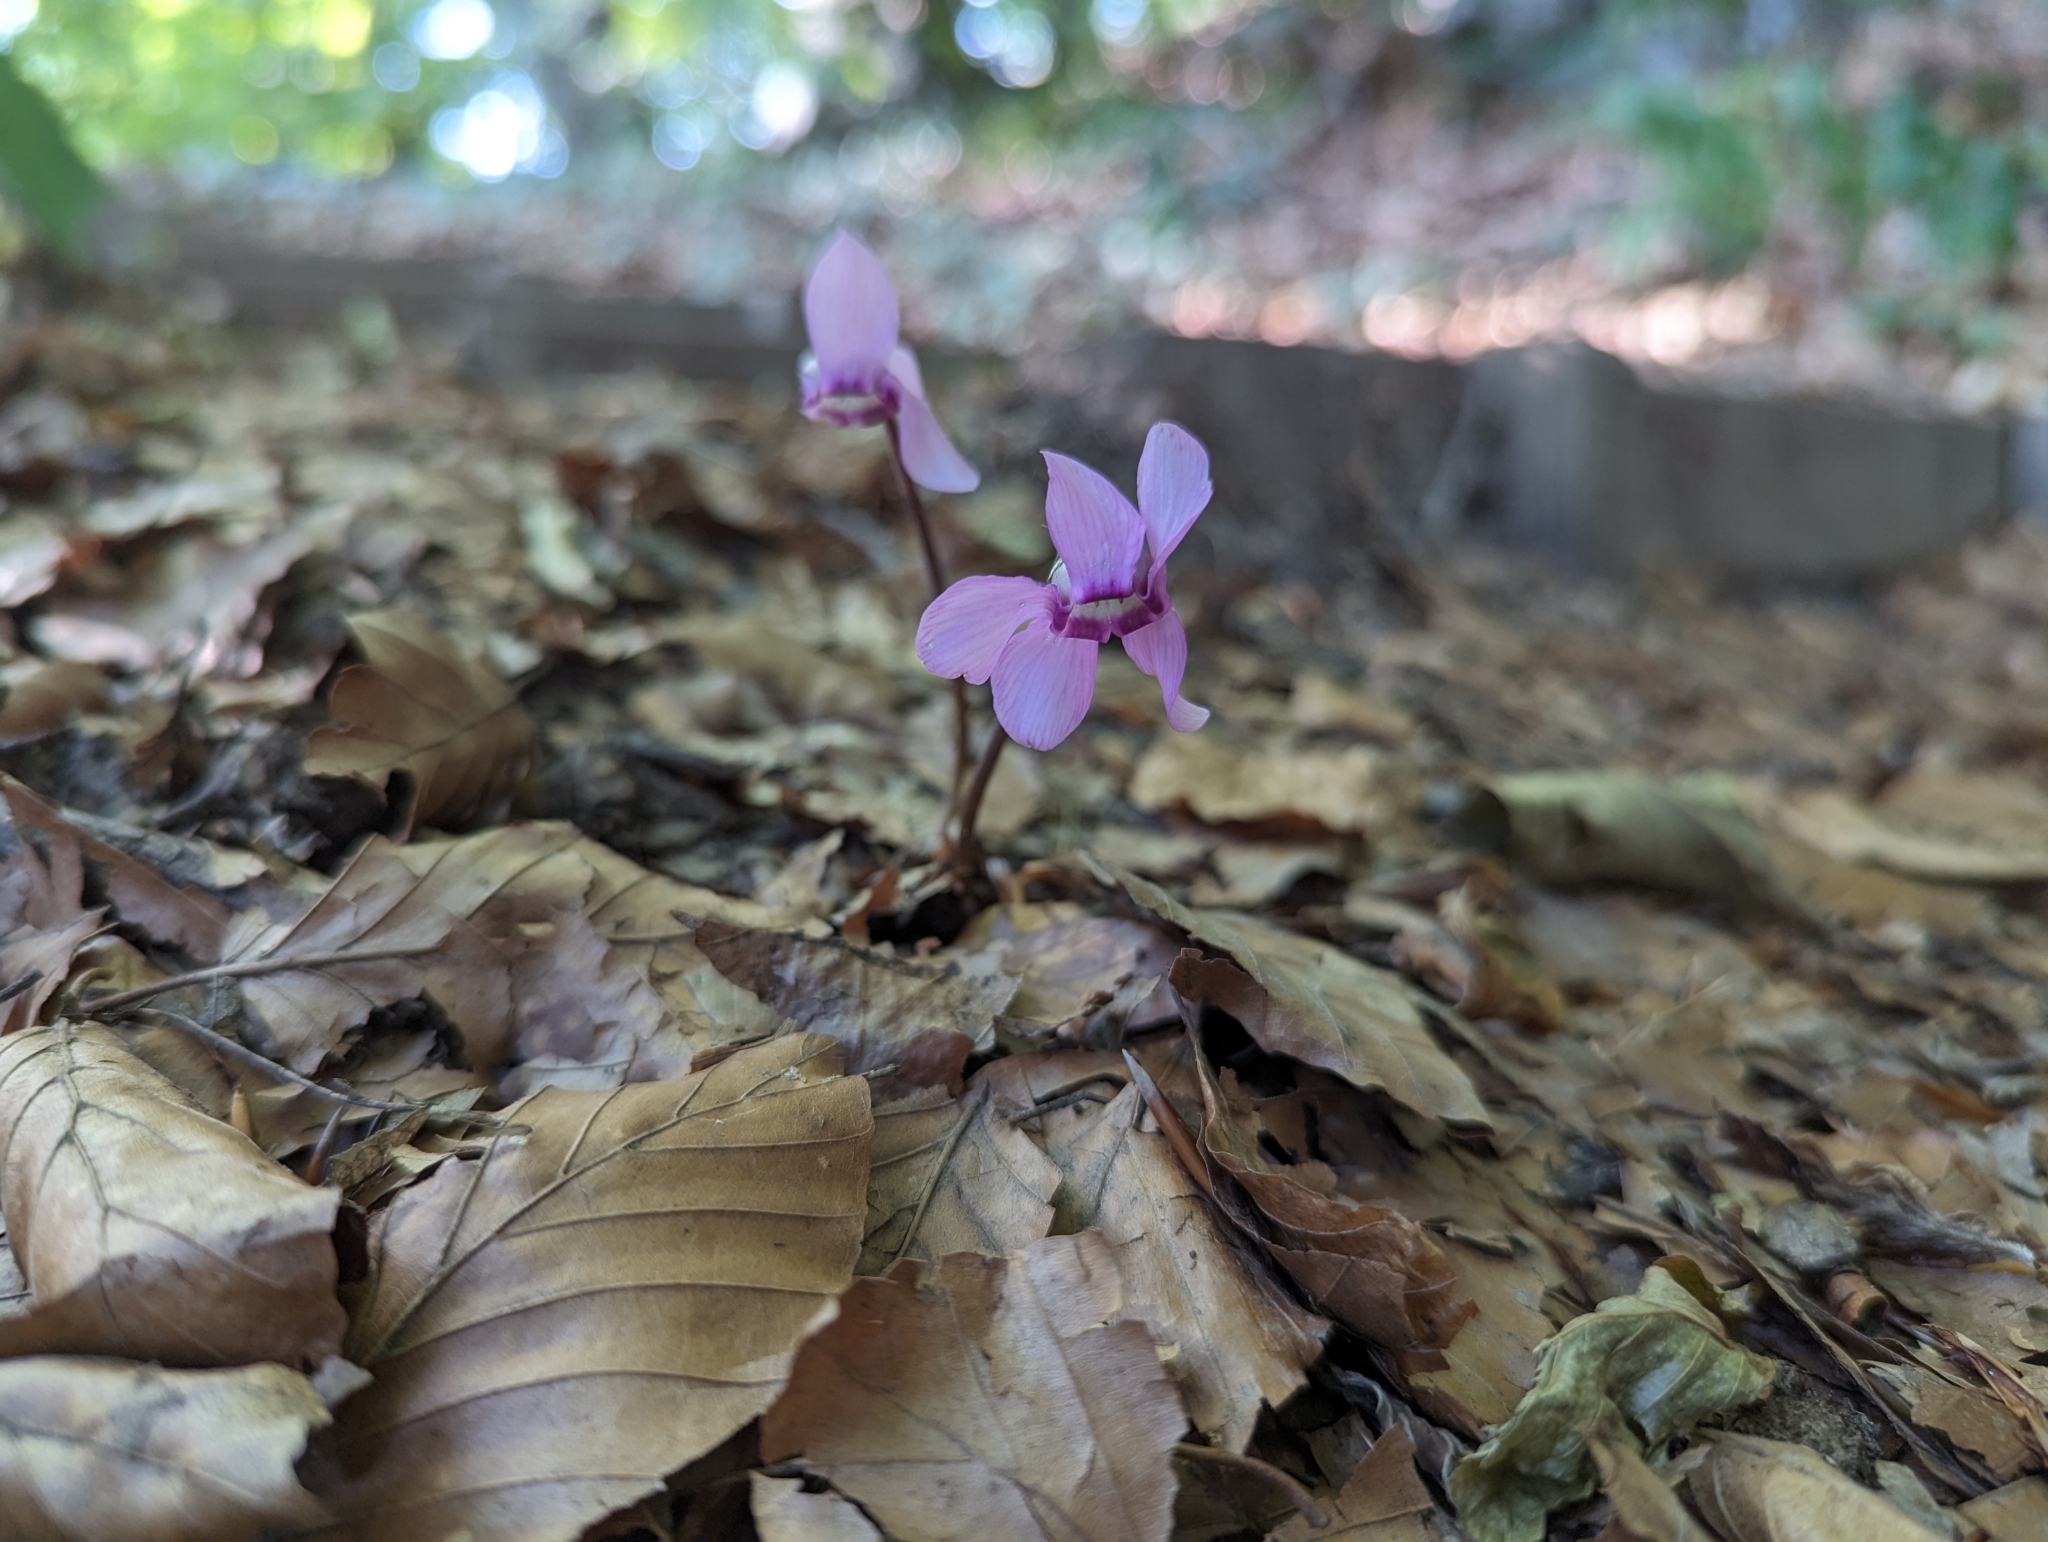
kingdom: Plantae
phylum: Tracheophyta
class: Magnoliopsida
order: Ericales
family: Primulaceae
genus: Cyclamen
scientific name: Cyclamen purpurascens
